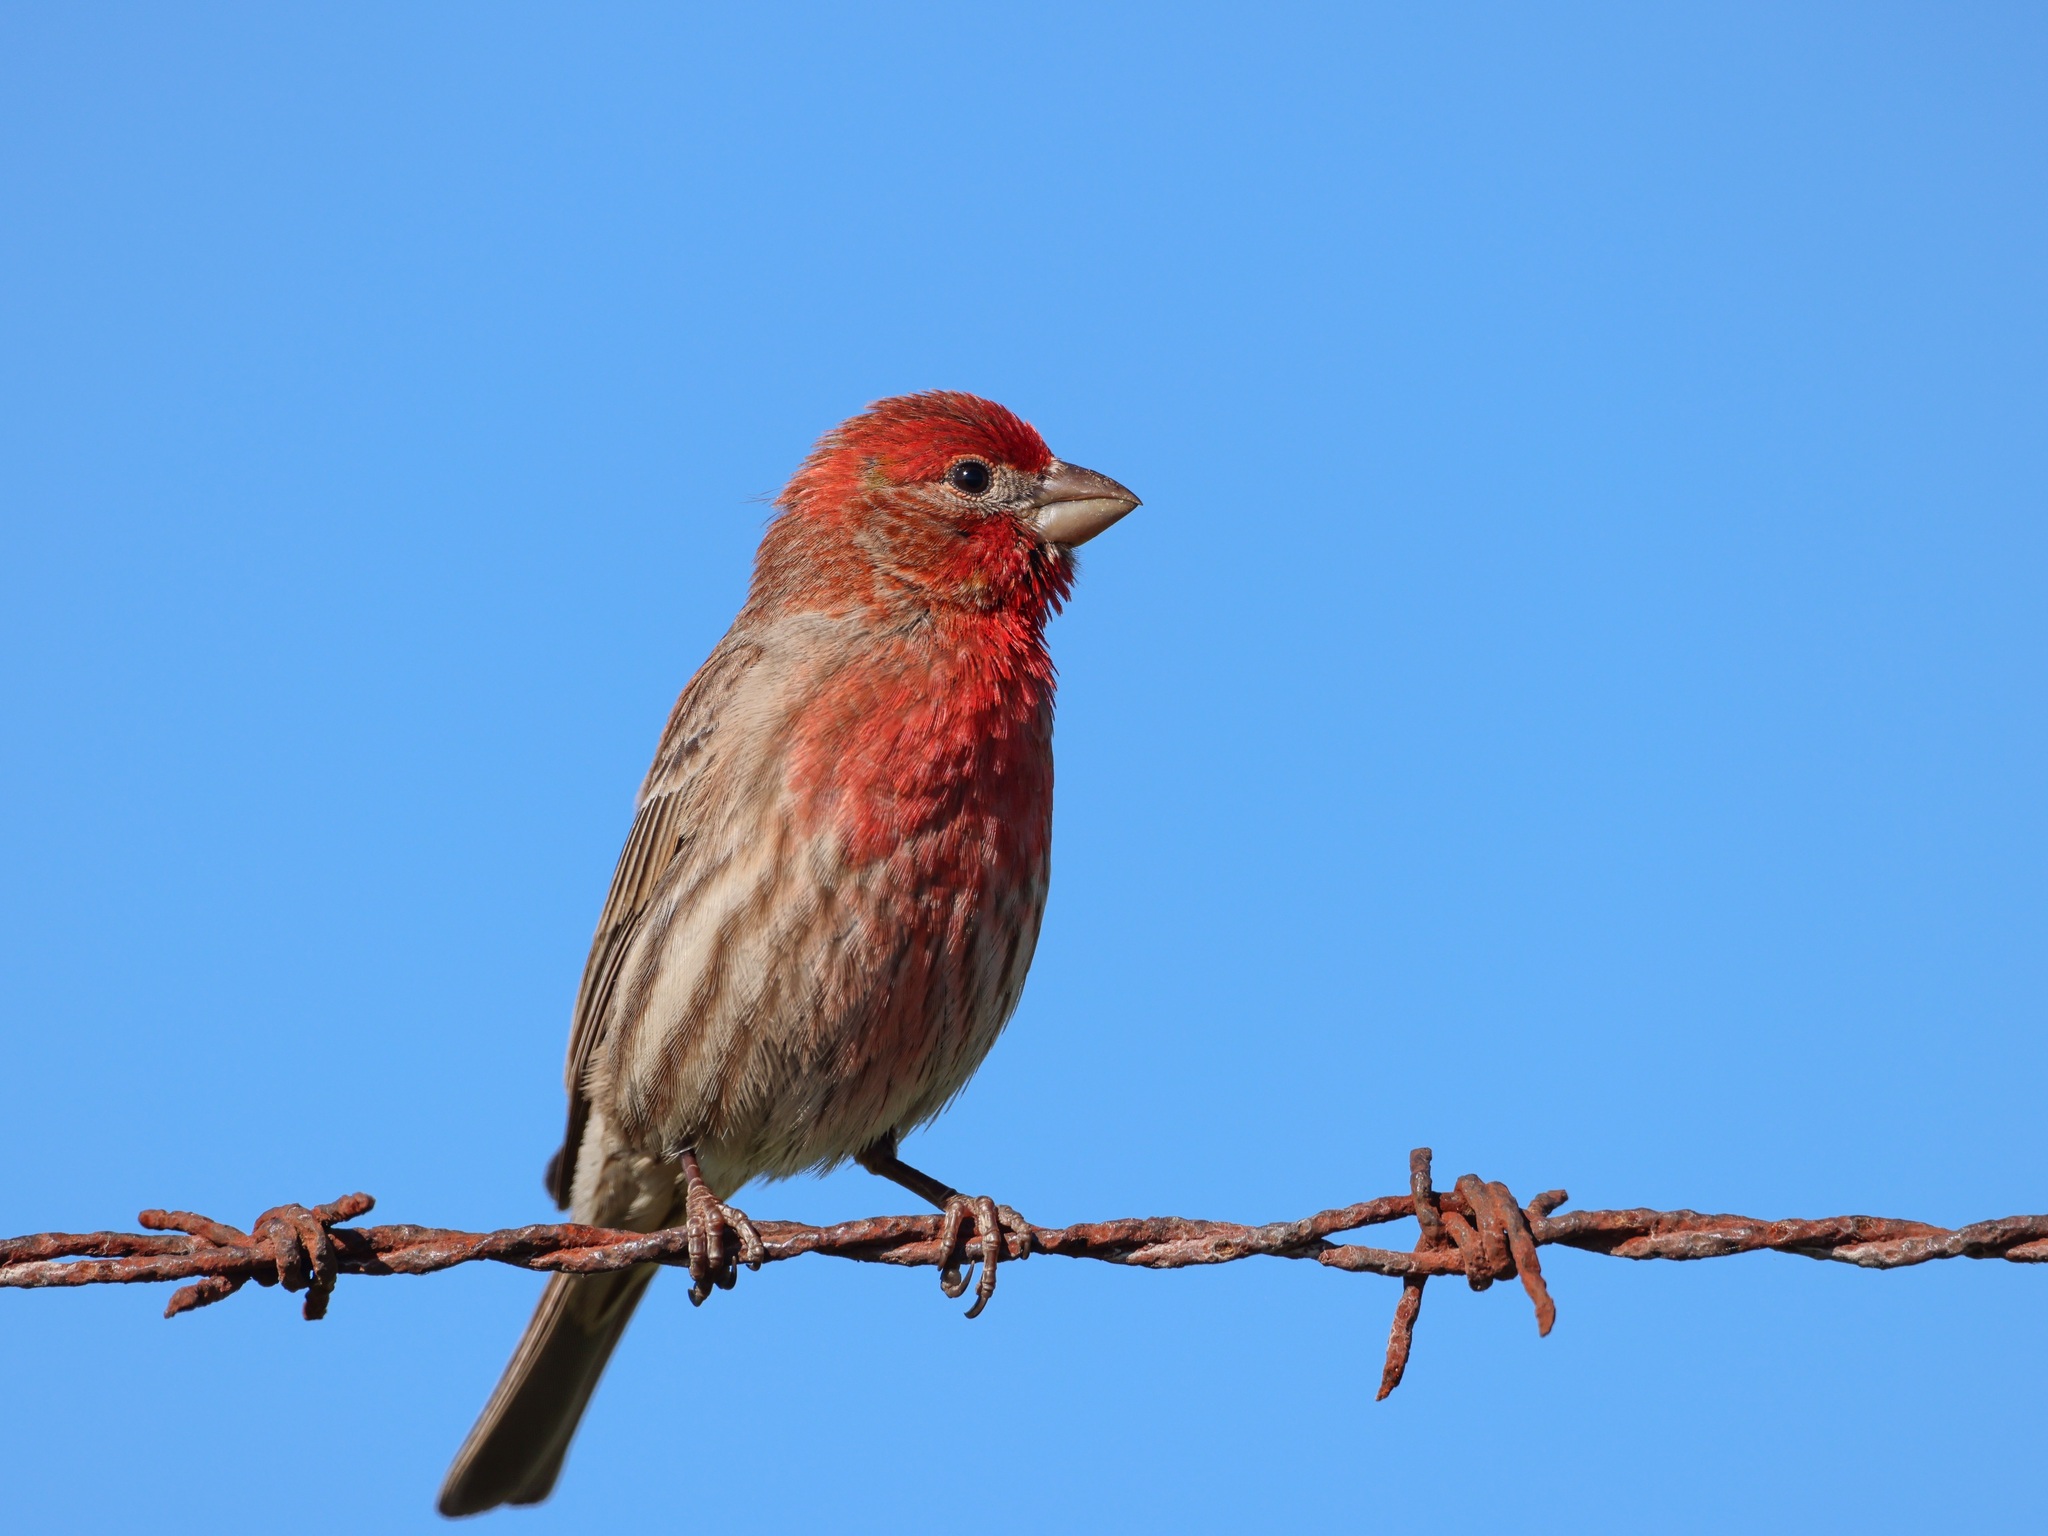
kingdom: Animalia
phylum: Chordata
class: Aves
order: Passeriformes
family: Fringillidae
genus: Haemorhous
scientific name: Haemorhous mexicanus
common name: House finch
